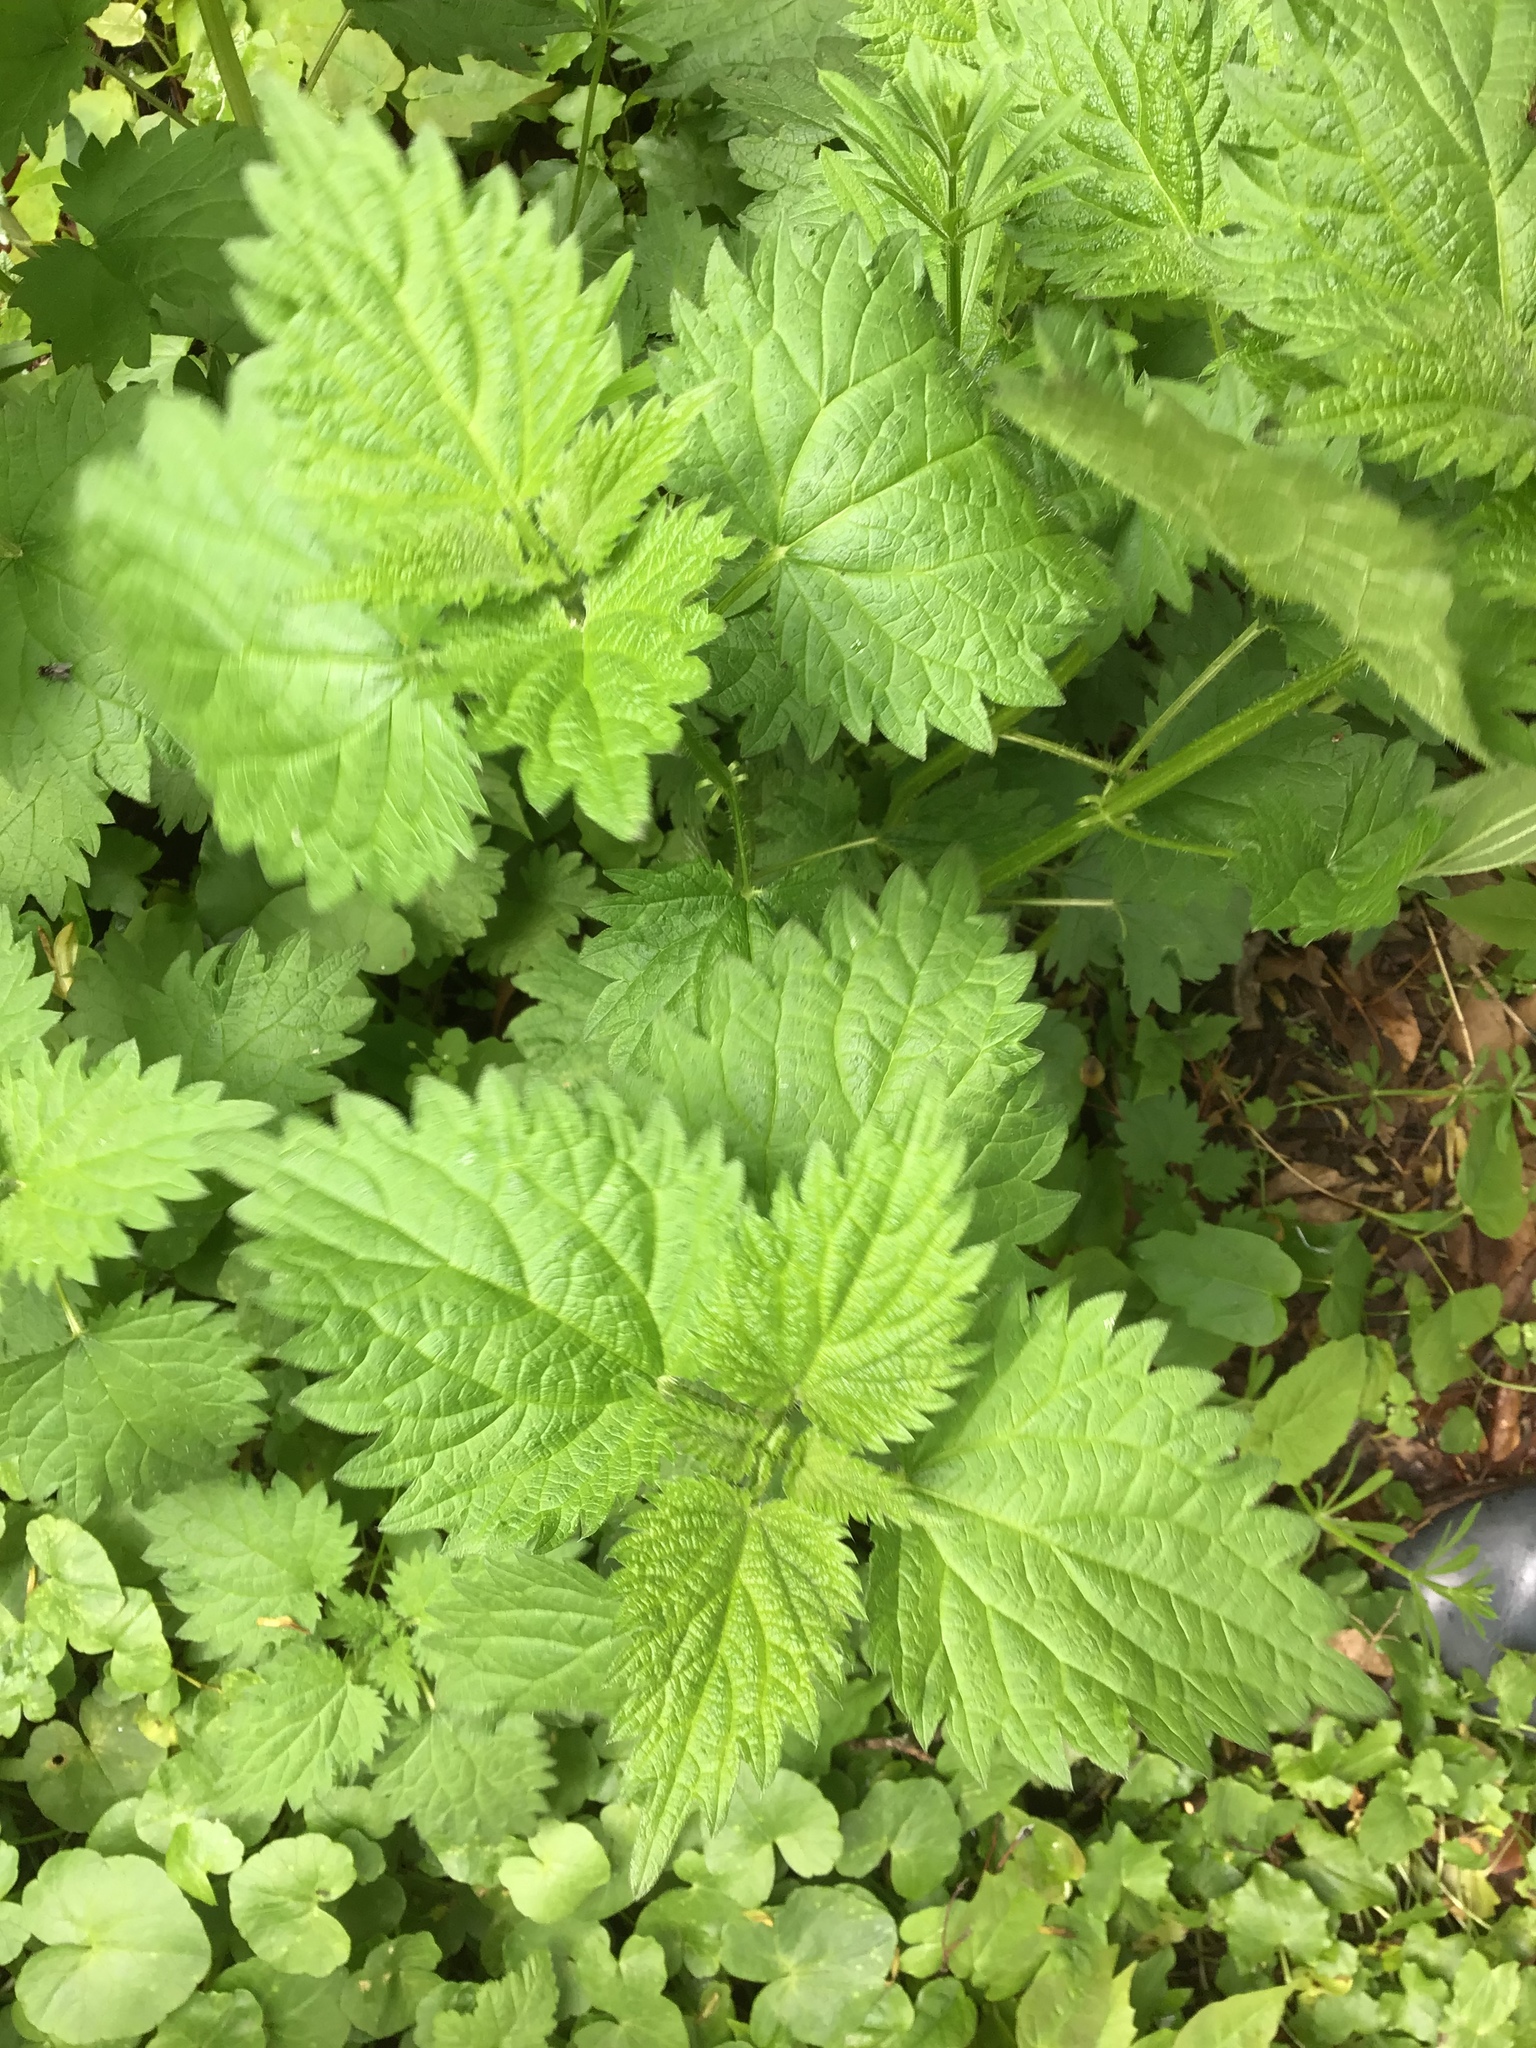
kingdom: Plantae
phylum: Tracheophyta
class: Magnoliopsida
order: Rosales
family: Urticaceae
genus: Urtica
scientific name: Urtica dioica
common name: Common nettle
